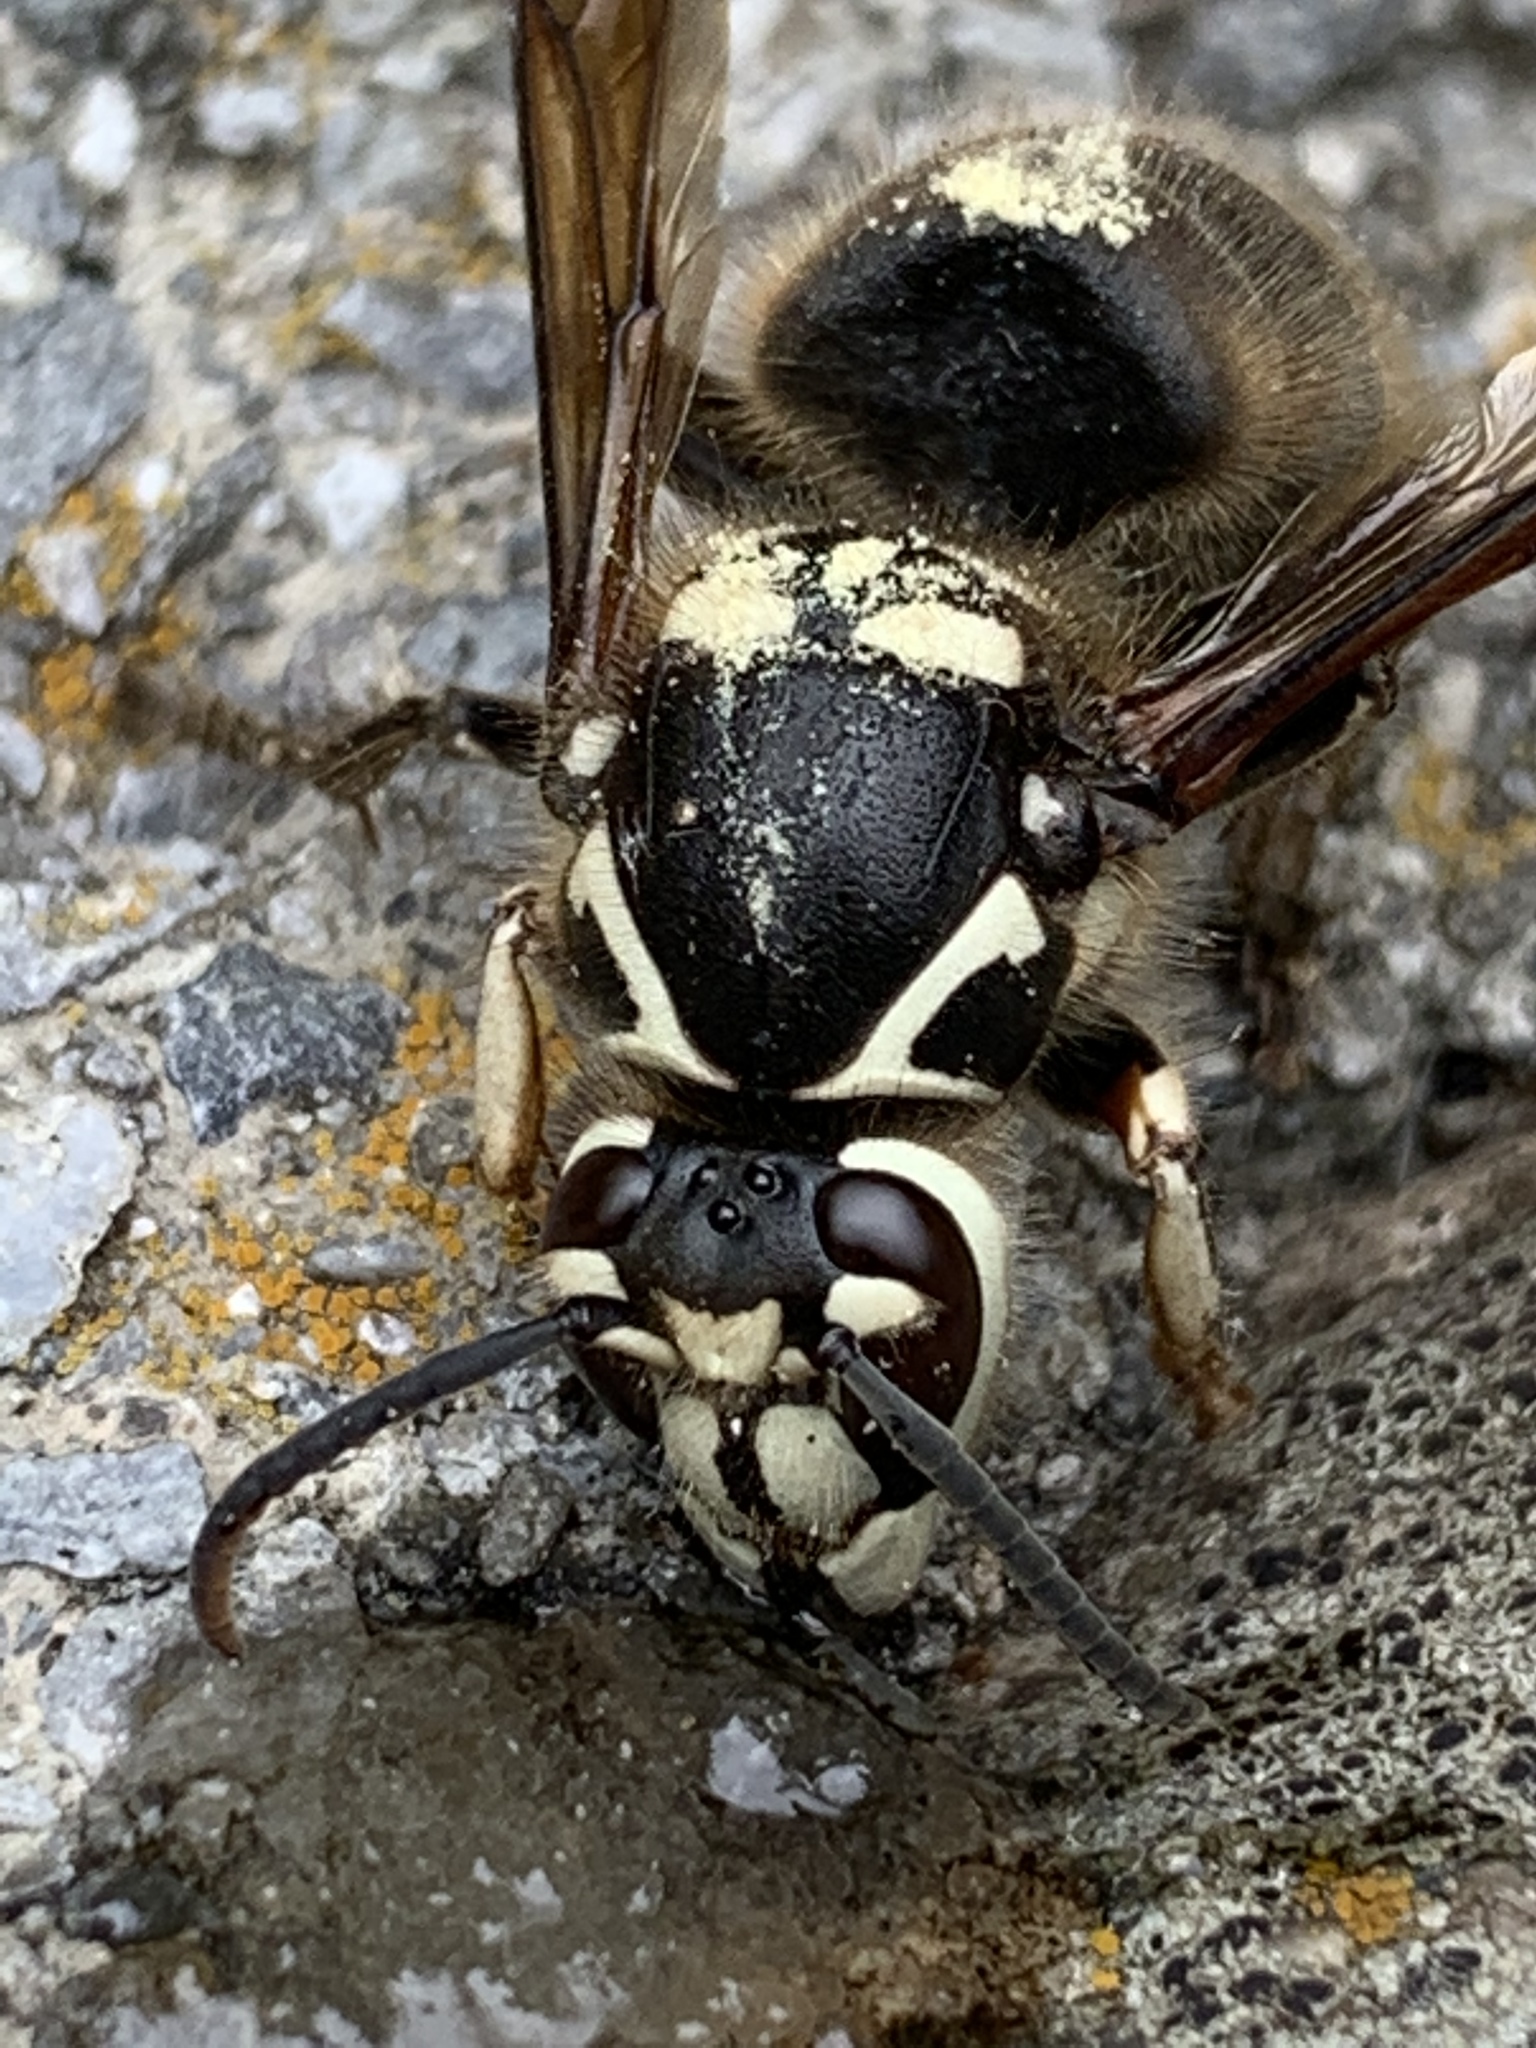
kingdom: Animalia
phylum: Arthropoda
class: Insecta
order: Hymenoptera
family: Vespidae
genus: Dolichovespula
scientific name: Dolichovespula maculata
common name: Bald-faced hornet
